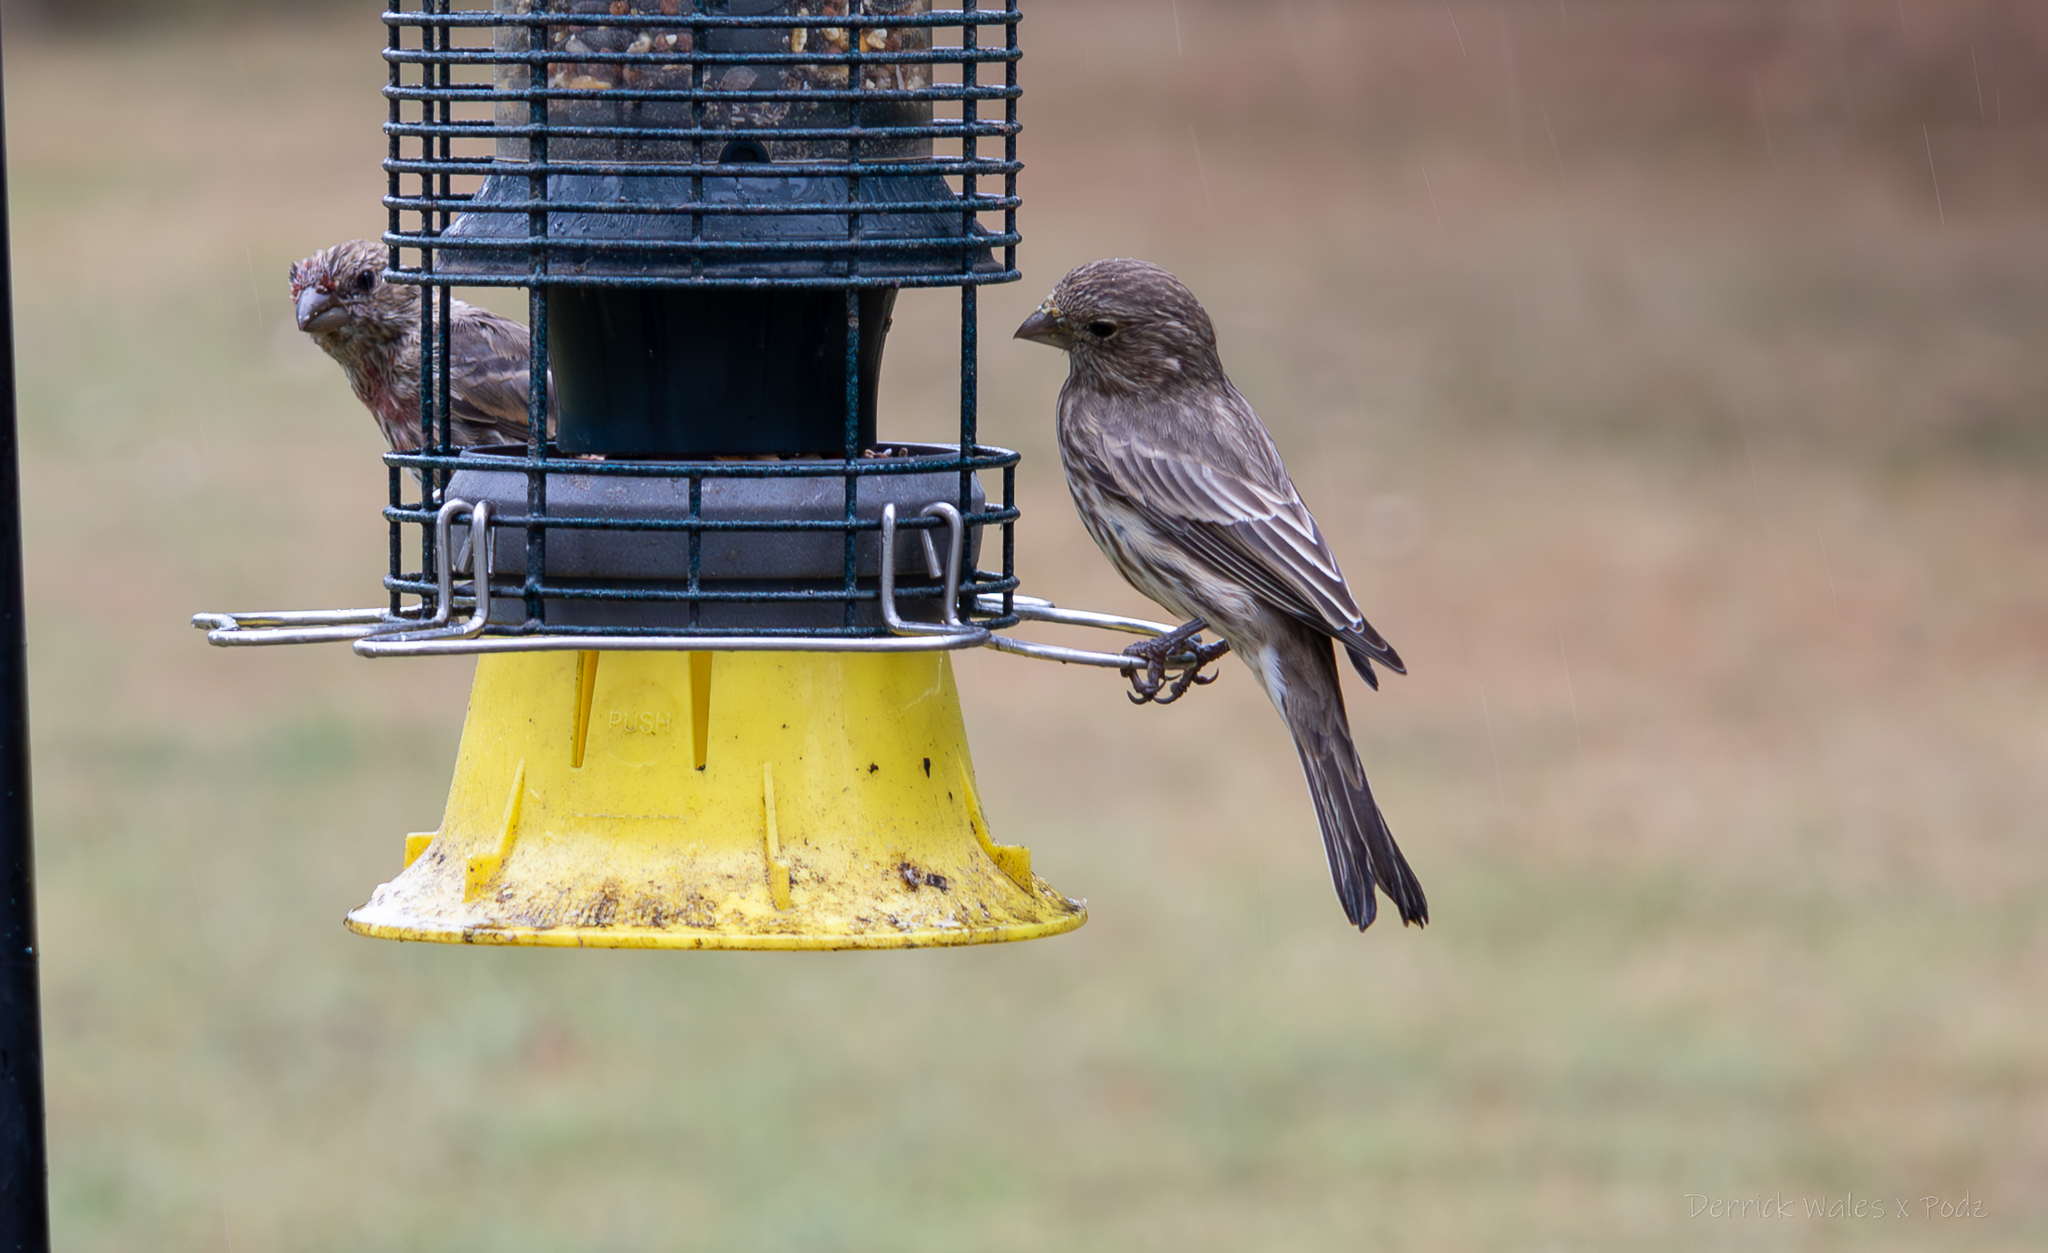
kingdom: Animalia
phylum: Chordata
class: Aves
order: Passeriformes
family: Fringillidae
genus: Haemorhous
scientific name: Haemorhous mexicanus
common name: House finch
